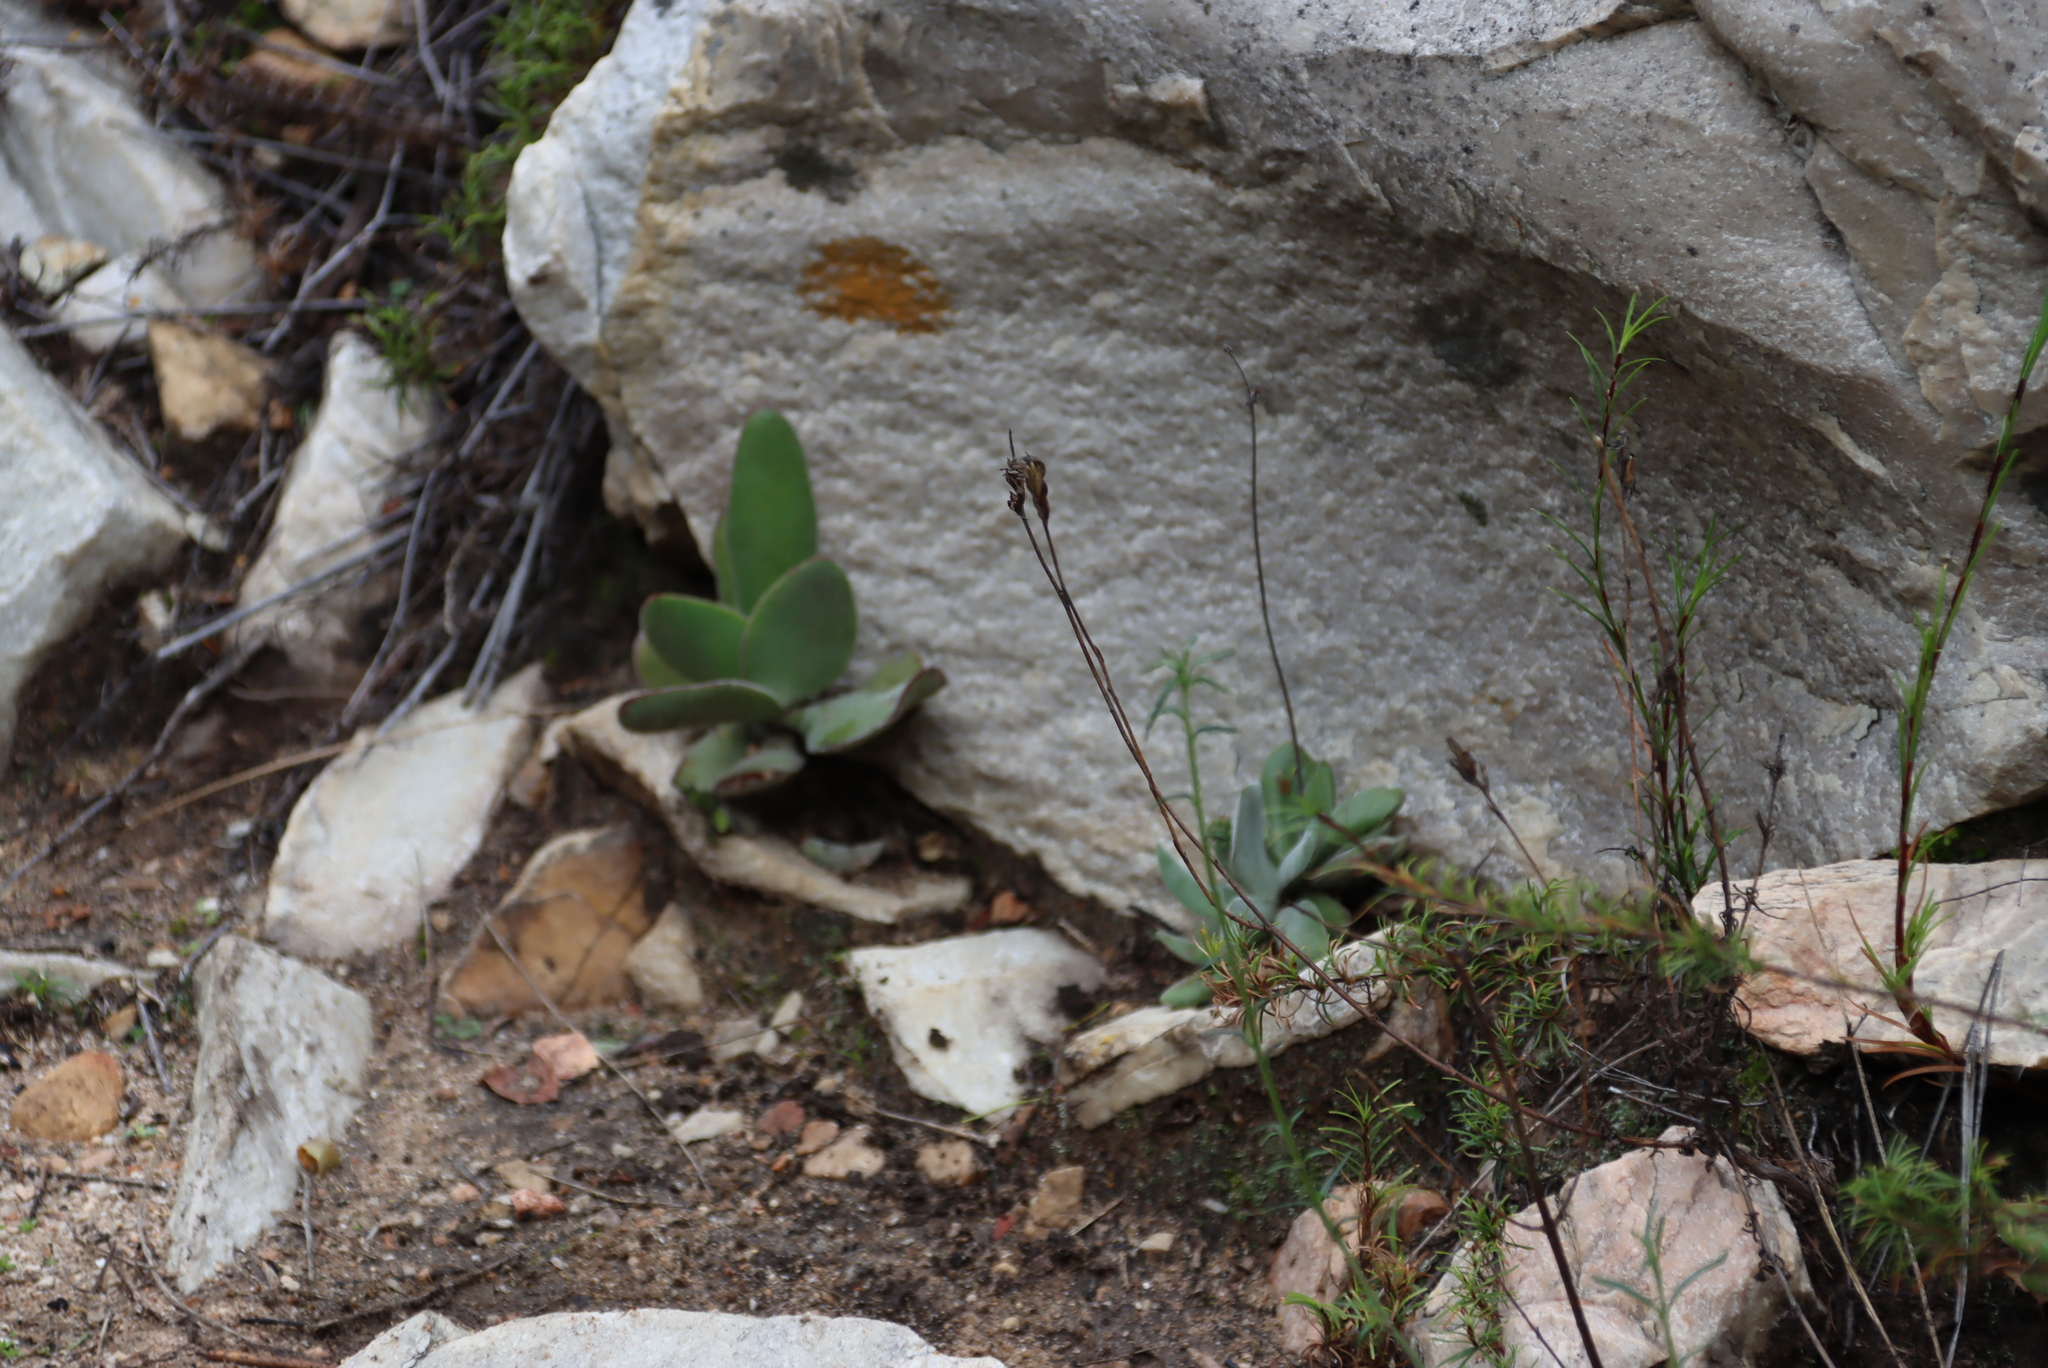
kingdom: Plantae
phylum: Tracheophyta
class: Magnoliopsida
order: Saxifragales
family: Crassulaceae
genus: Crassula
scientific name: Crassula cotyledonis
